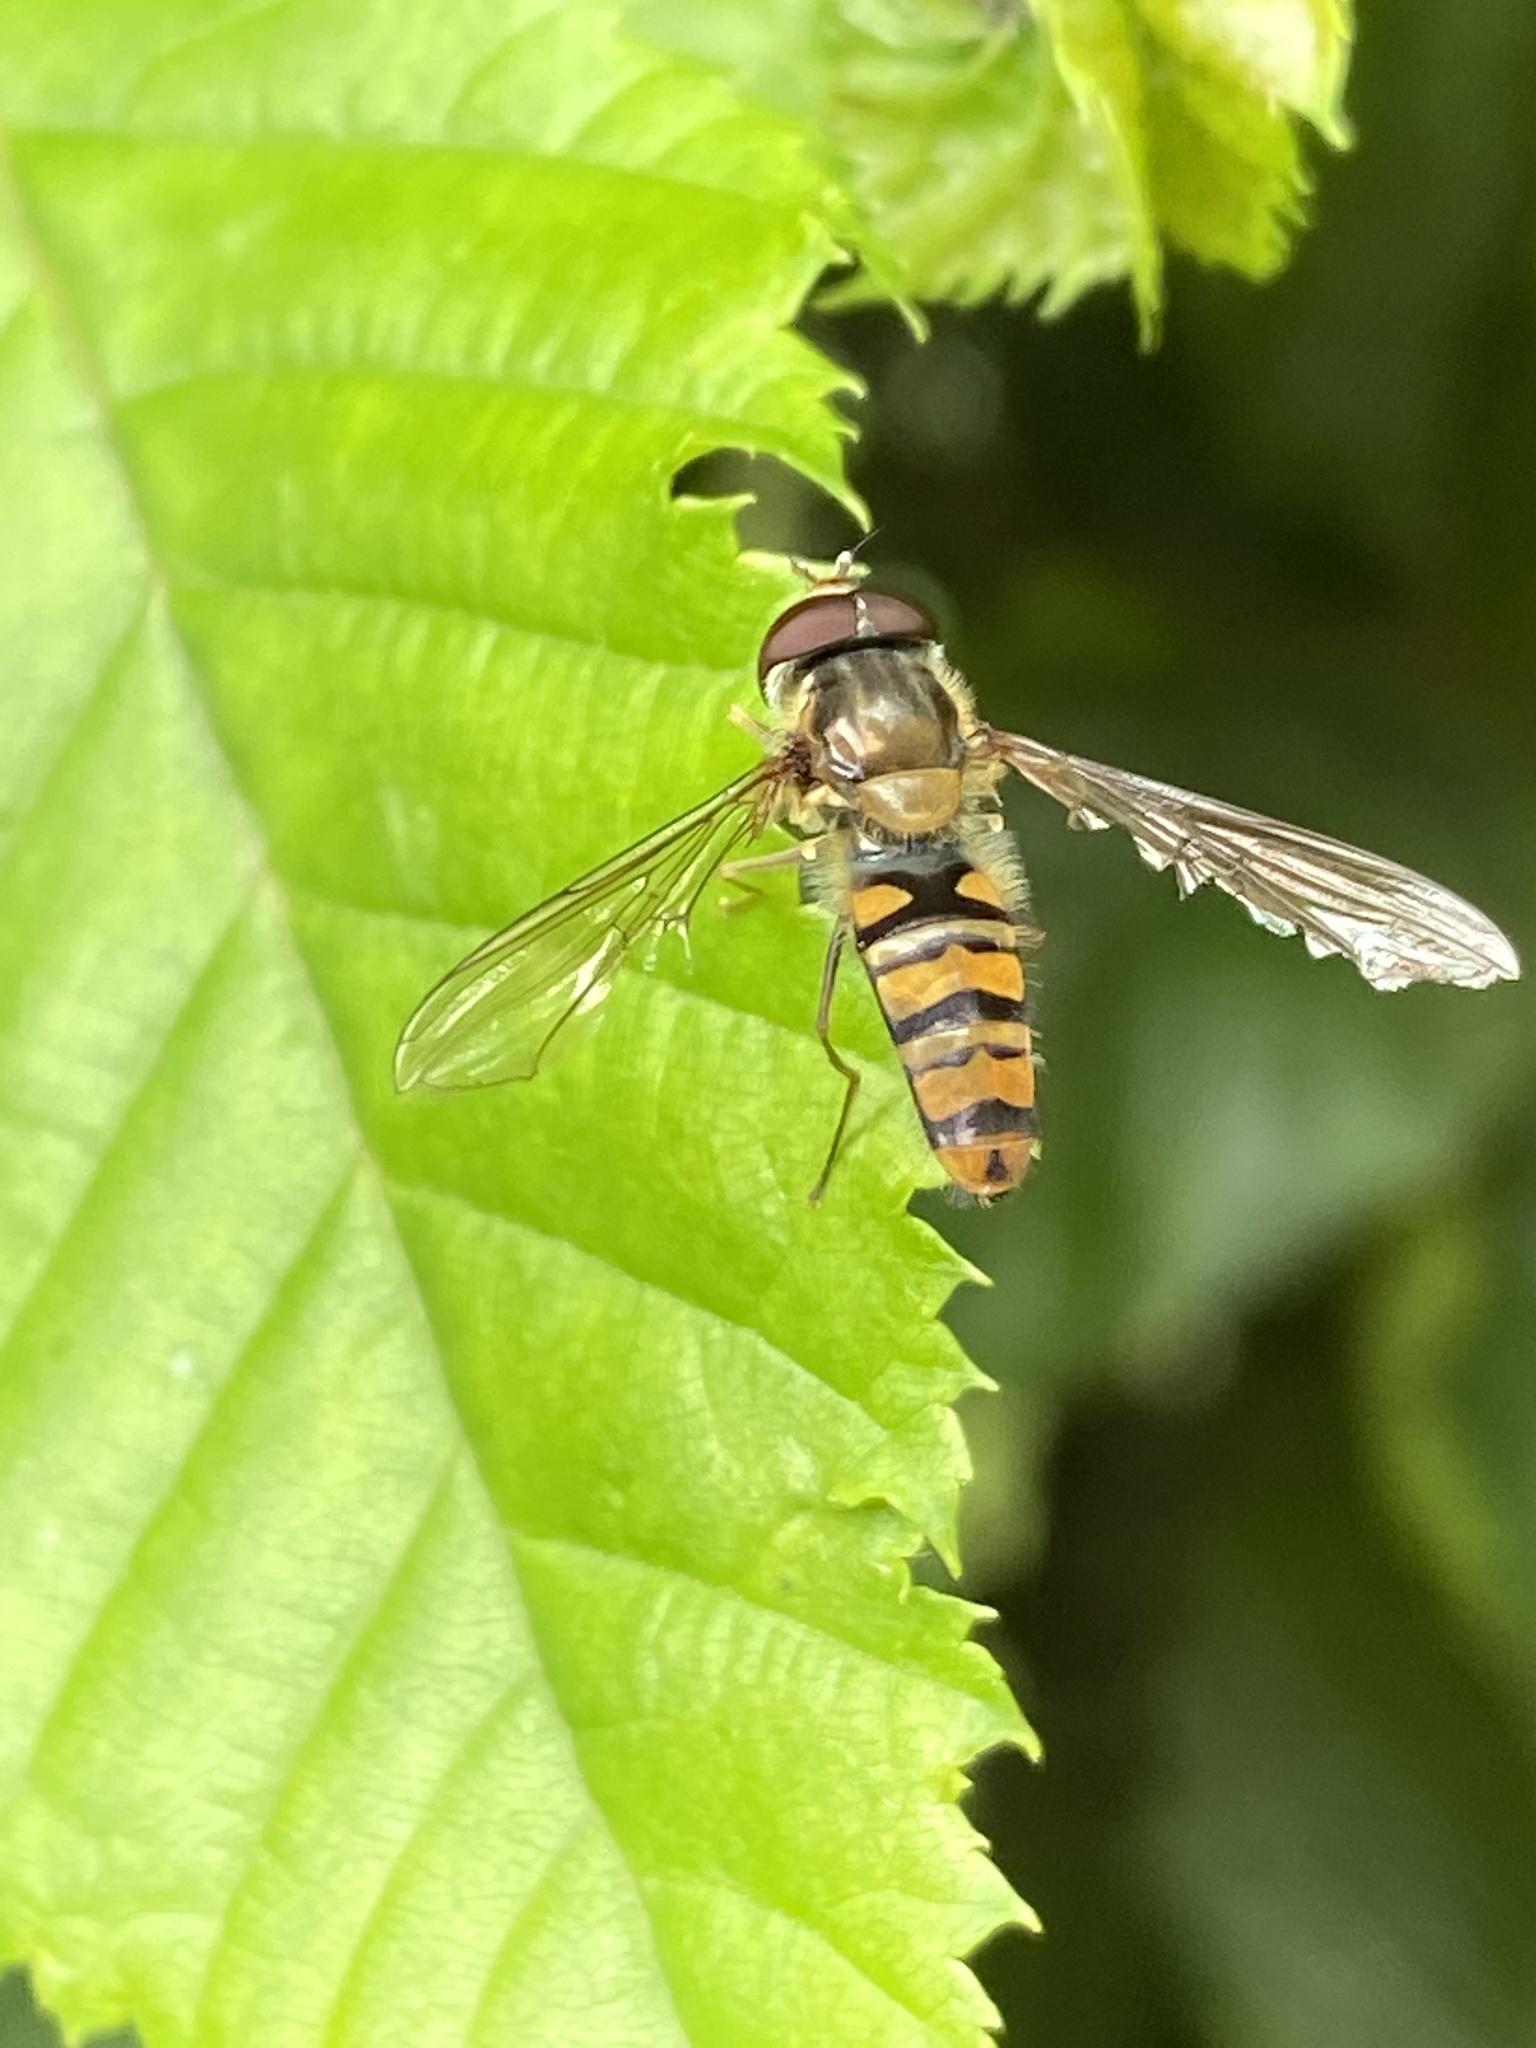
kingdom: Animalia
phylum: Arthropoda
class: Insecta
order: Diptera
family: Syrphidae
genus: Episyrphus
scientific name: Episyrphus balteatus
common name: Marmalade hoverfly
